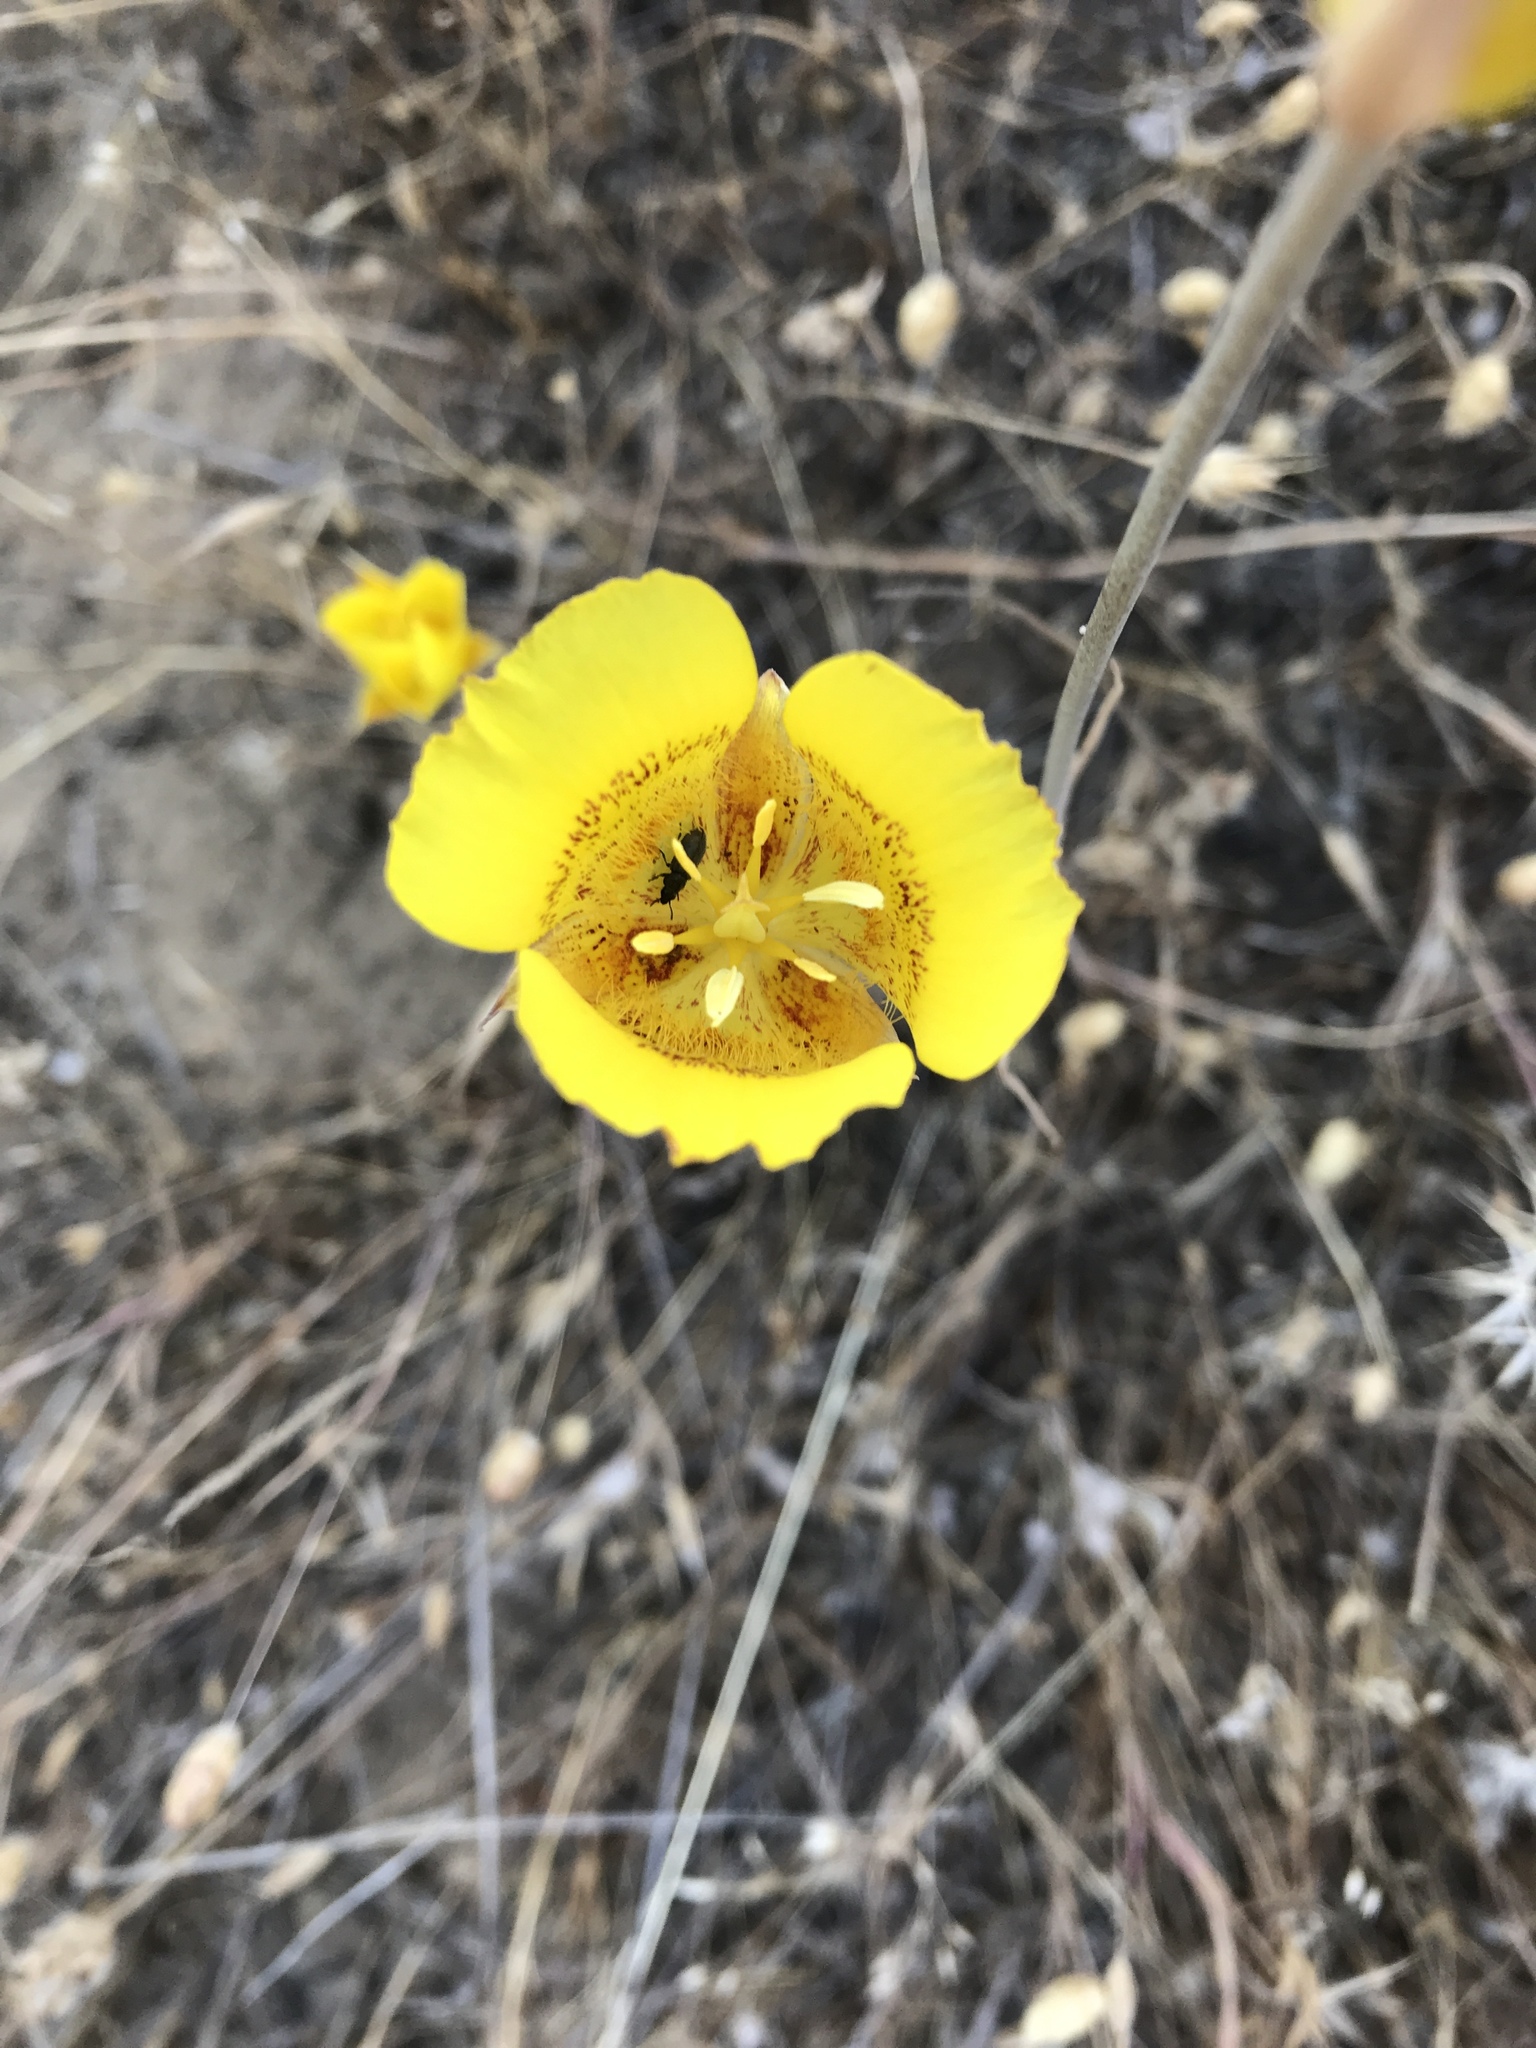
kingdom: Plantae
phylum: Tracheophyta
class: Liliopsida
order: Liliales
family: Liliaceae
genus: Calochortus
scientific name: Calochortus luteus
